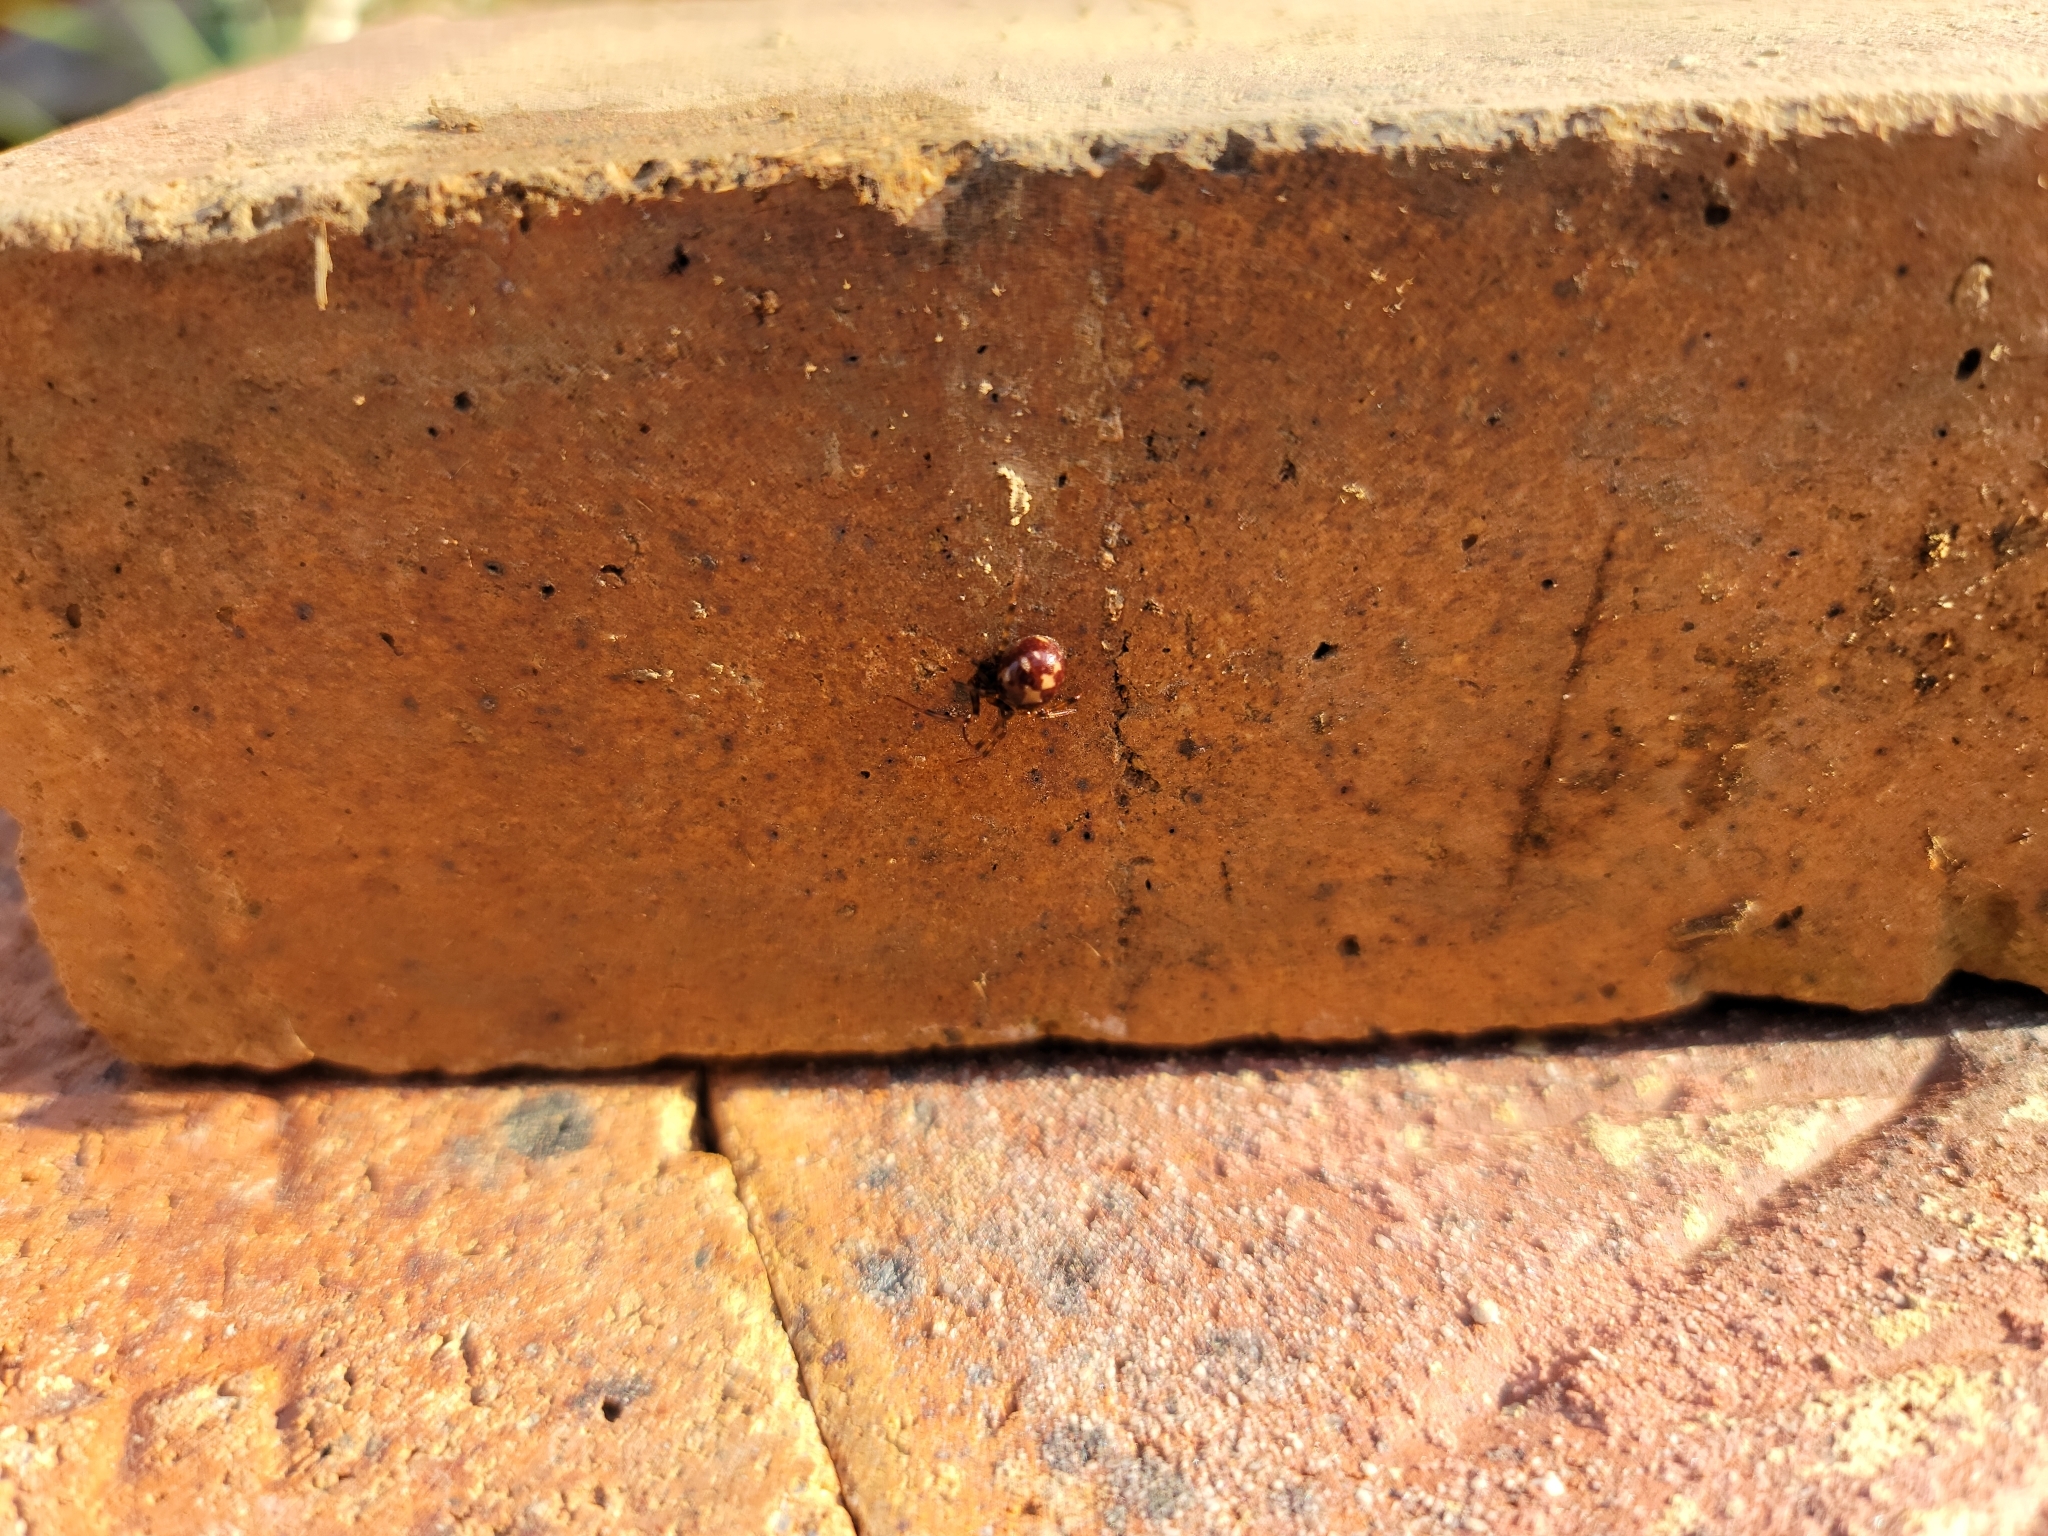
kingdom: Animalia
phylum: Arthropoda
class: Arachnida
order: Araneae
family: Theridiidae
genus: Steatoda
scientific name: Steatoda triangulosa
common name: Triangulate bud spider
